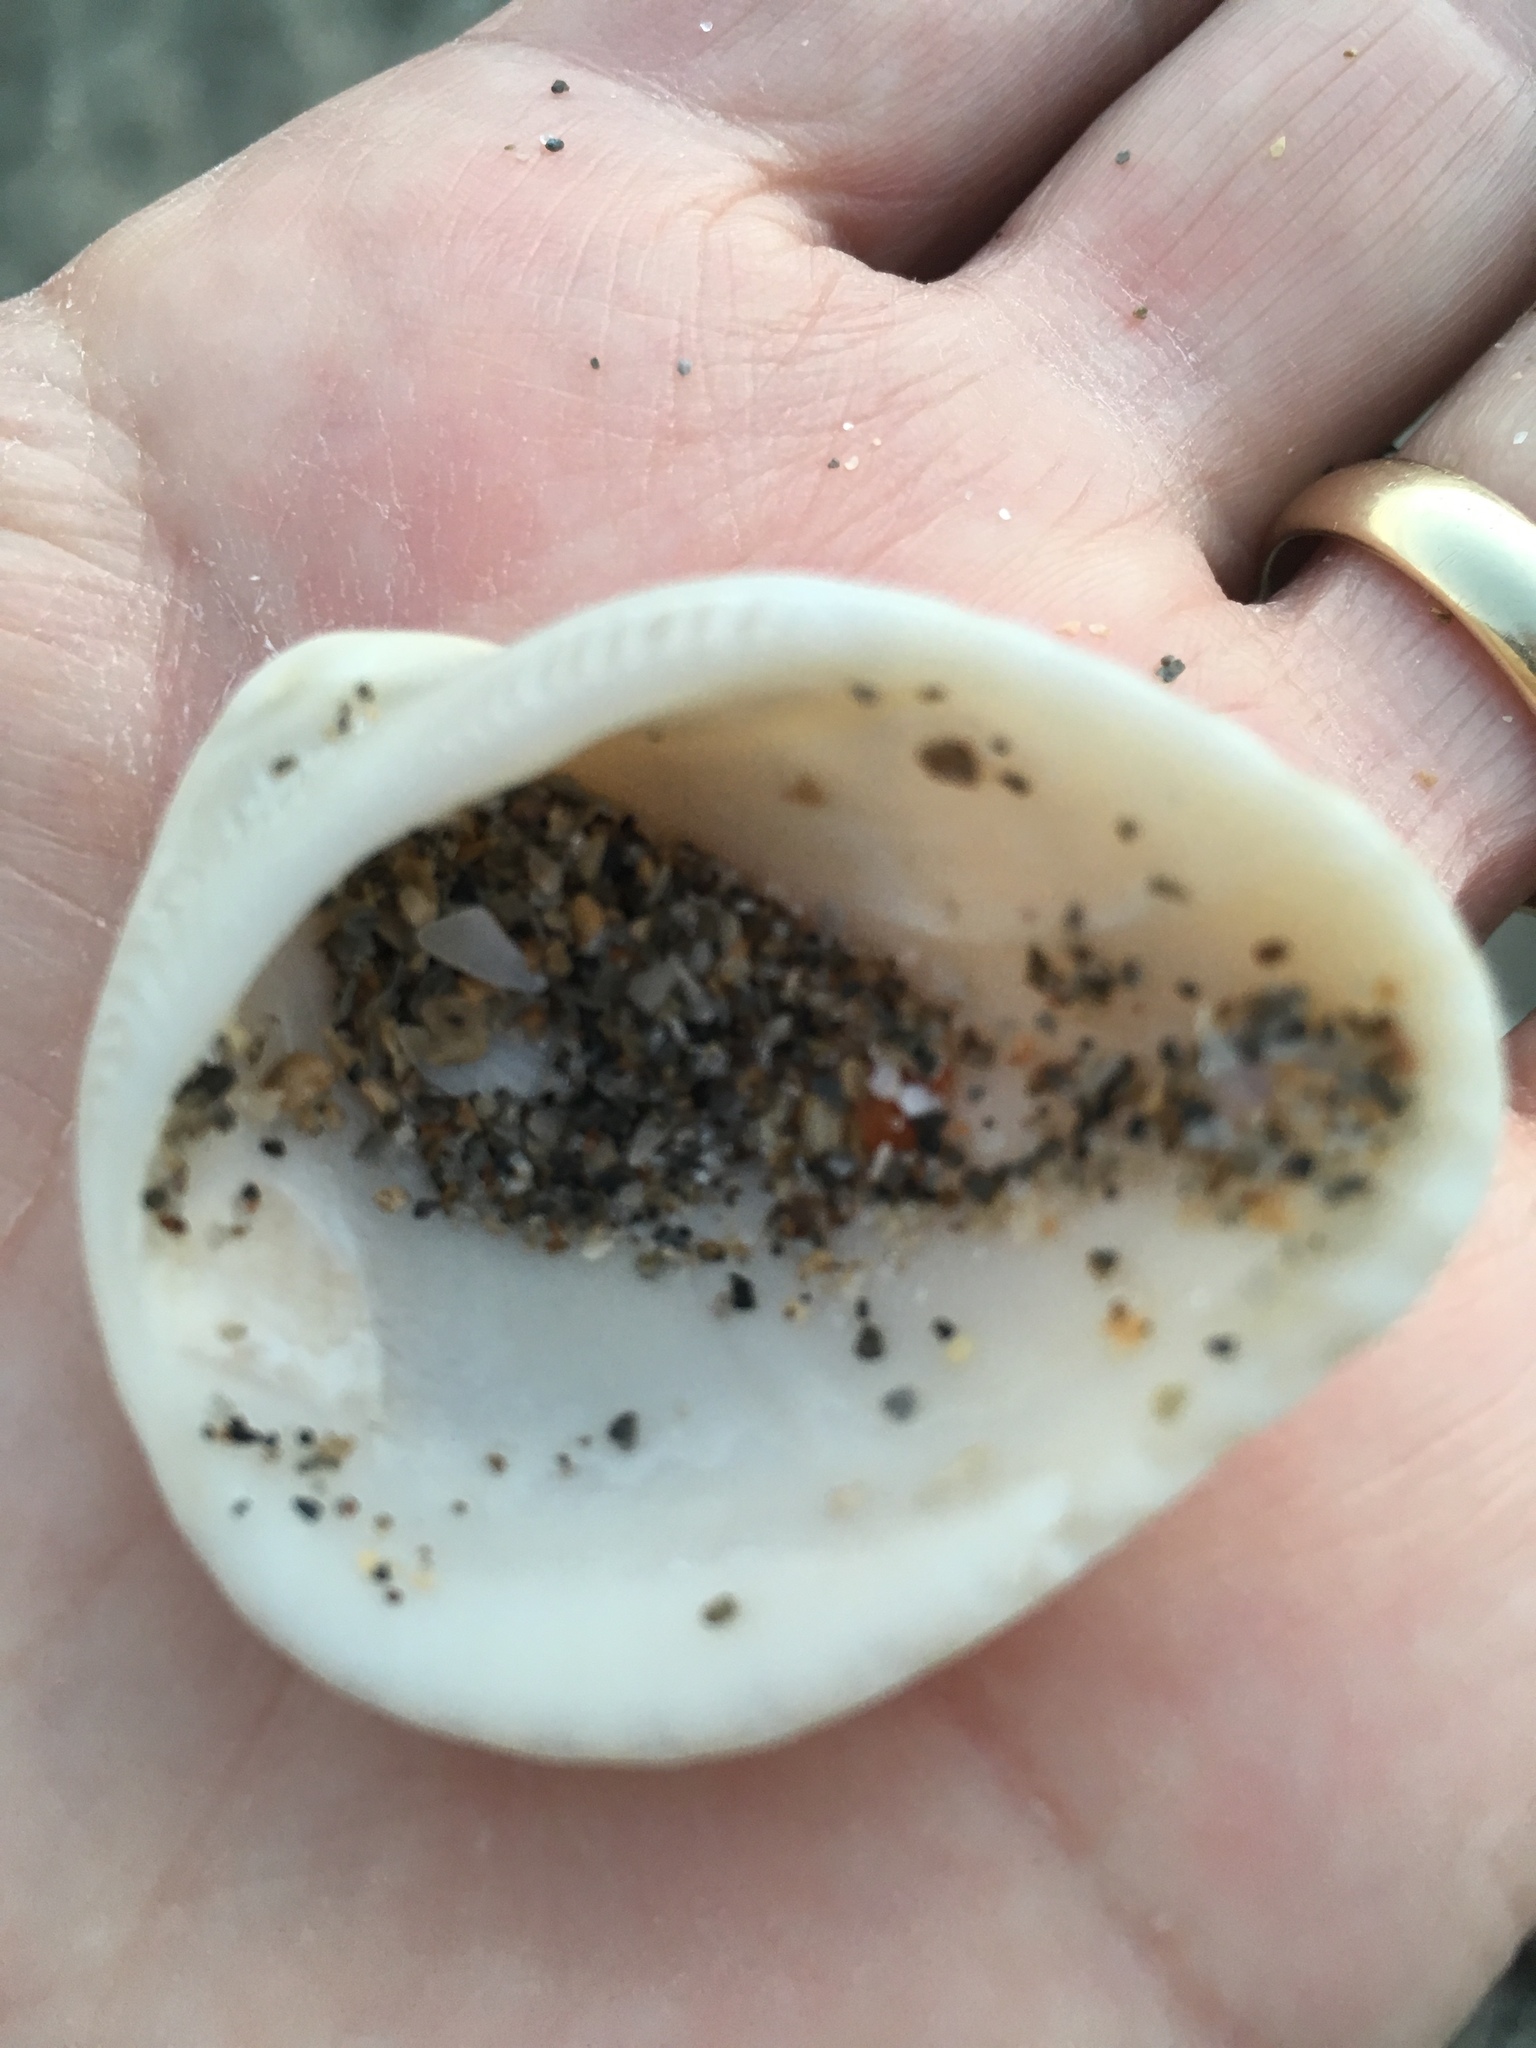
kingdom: Animalia
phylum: Mollusca
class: Bivalvia
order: Arcida
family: Noetiidae
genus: Noetia
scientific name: Noetia ponderosa
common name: Ponderous ark
